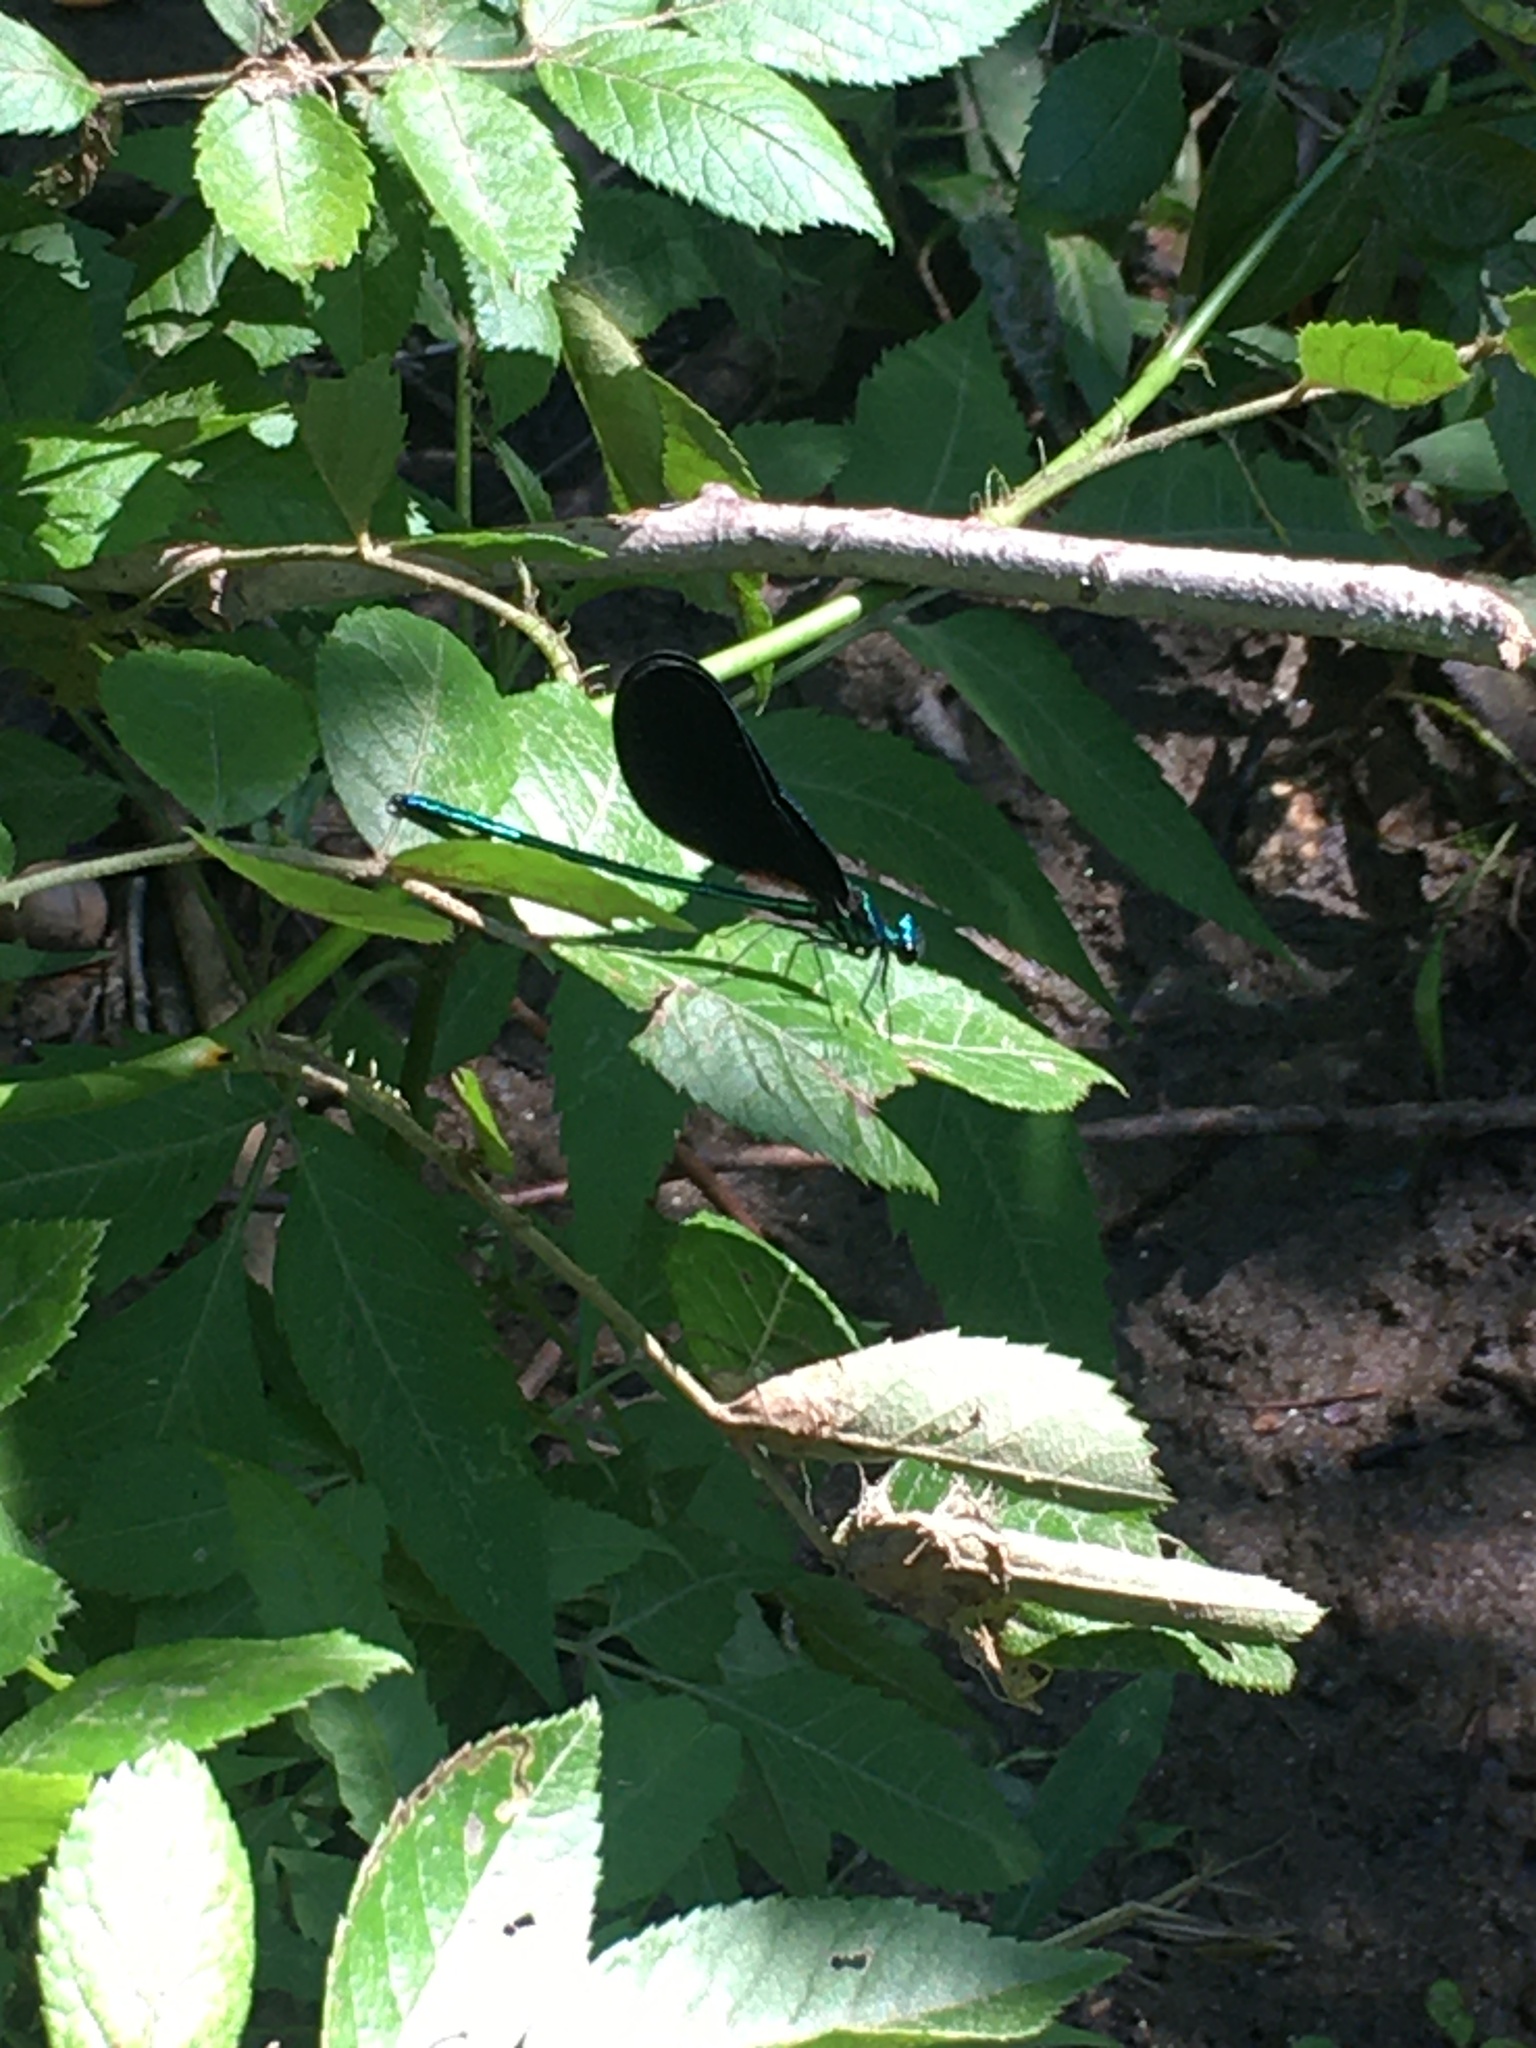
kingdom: Animalia
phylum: Arthropoda
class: Insecta
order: Odonata
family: Calopterygidae
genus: Calopteryx
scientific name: Calopteryx maculata
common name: Ebony jewelwing
